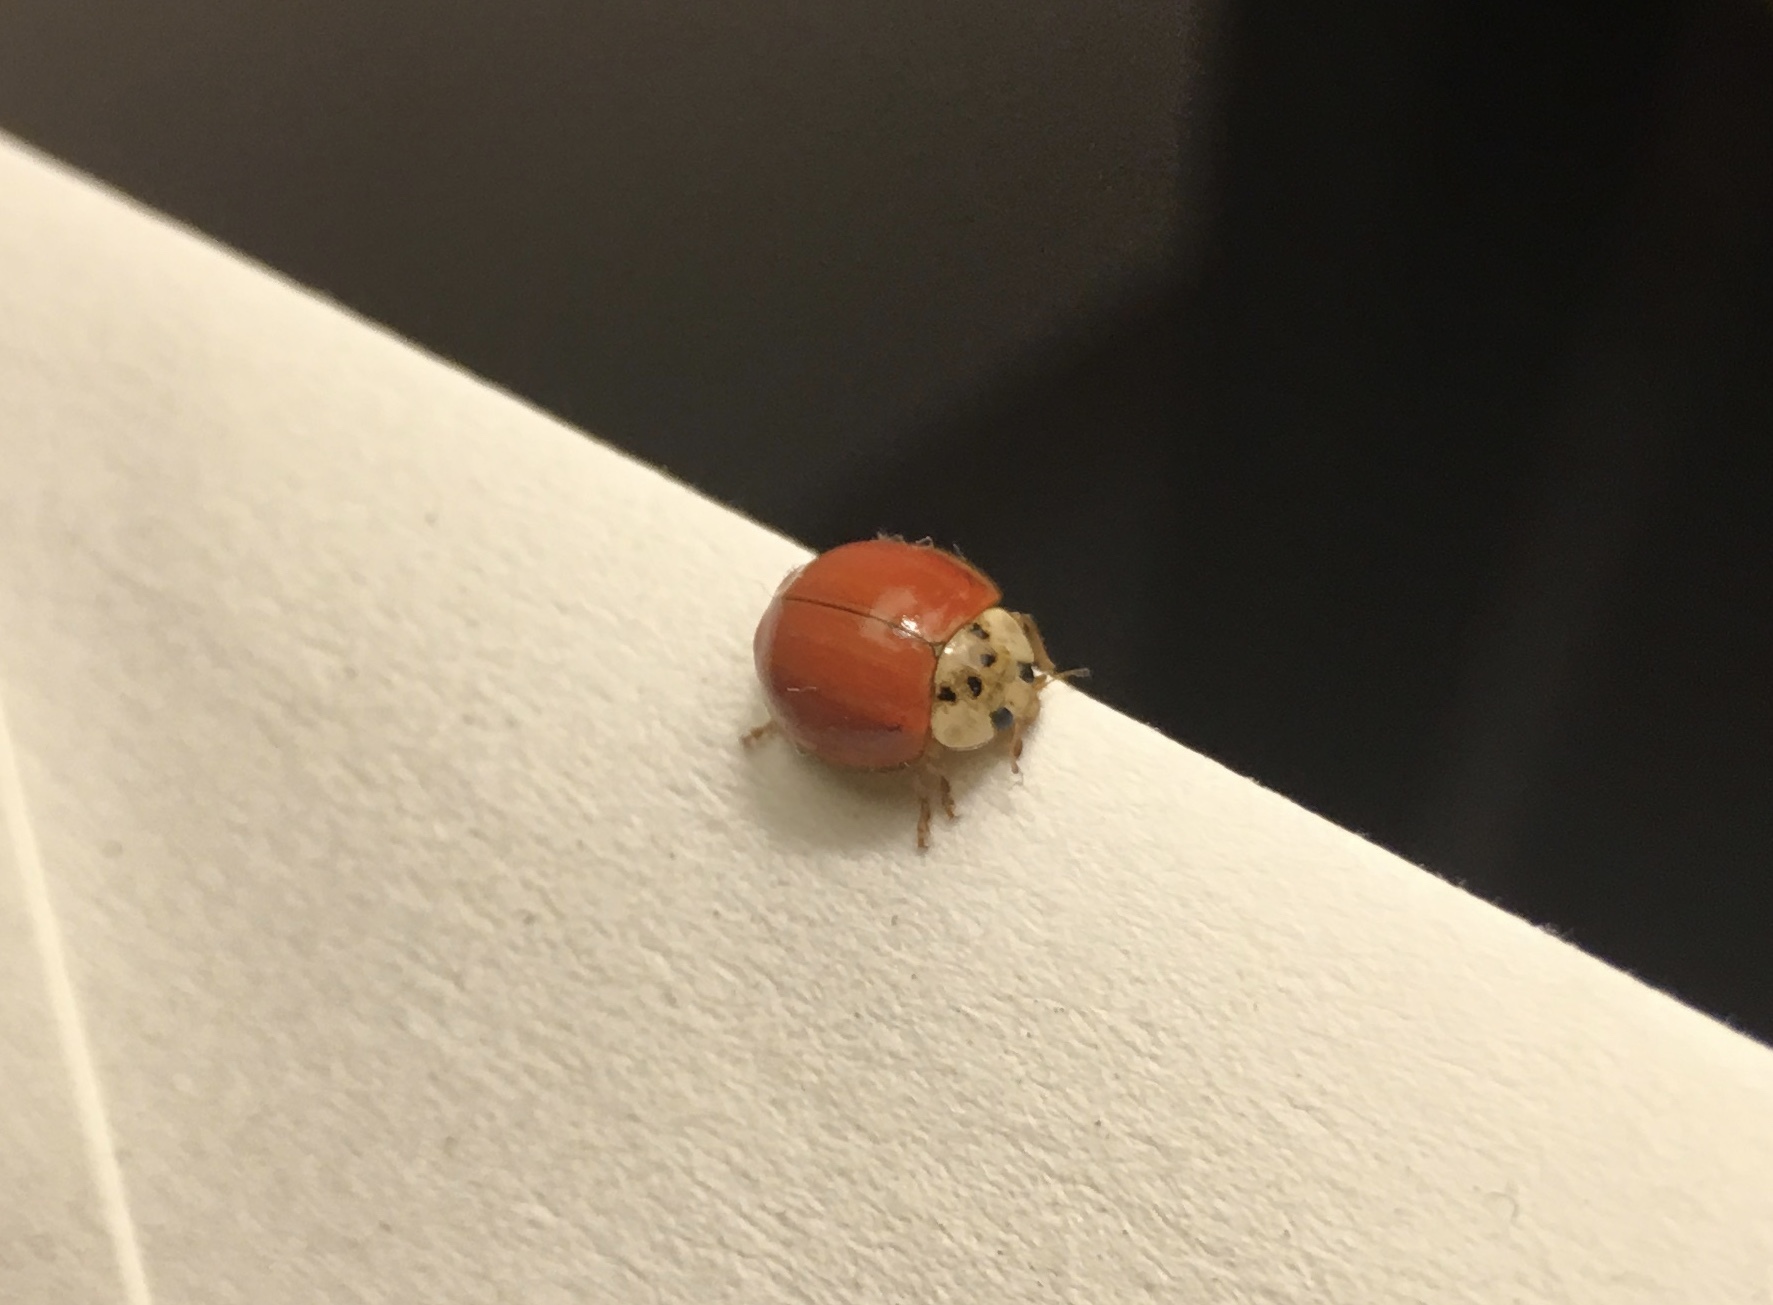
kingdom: Animalia
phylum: Arthropoda
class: Insecta
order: Coleoptera
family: Coccinellidae
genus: Harmonia
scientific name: Harmonia axyridis
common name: Harlequin ladybird
